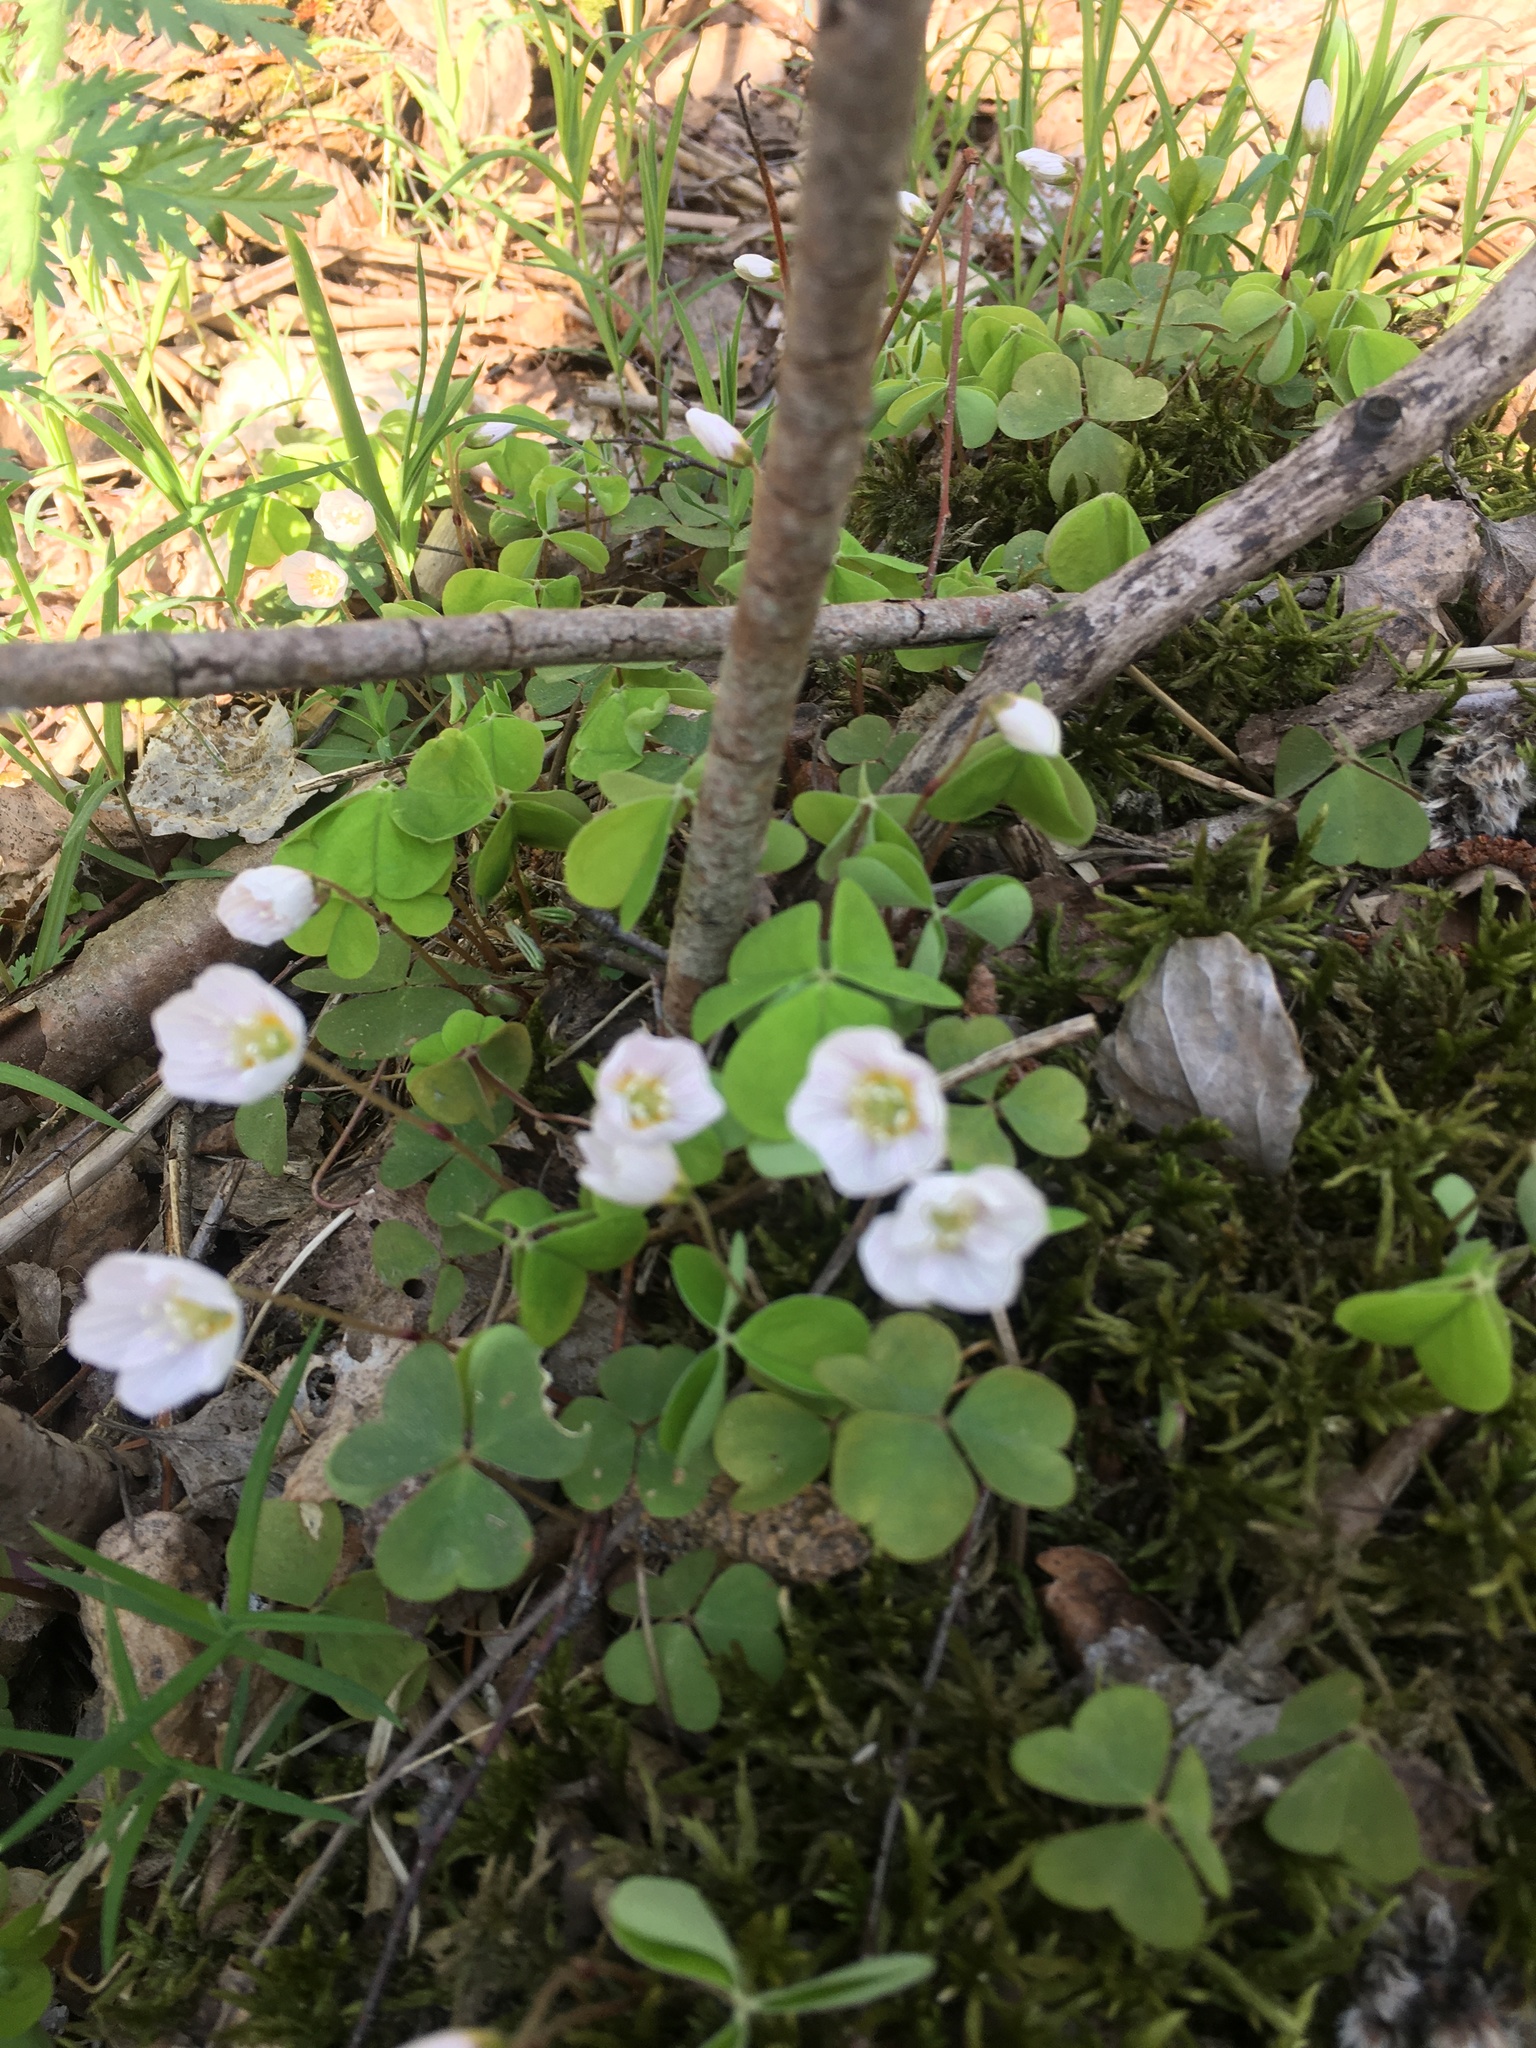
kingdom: Plantae
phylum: Tracheophyta
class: Magnoliopsida
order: Oxalidales
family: Oxalidaceae
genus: Oxalis
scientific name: Oxalis acetosella
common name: Wood-sorrel
